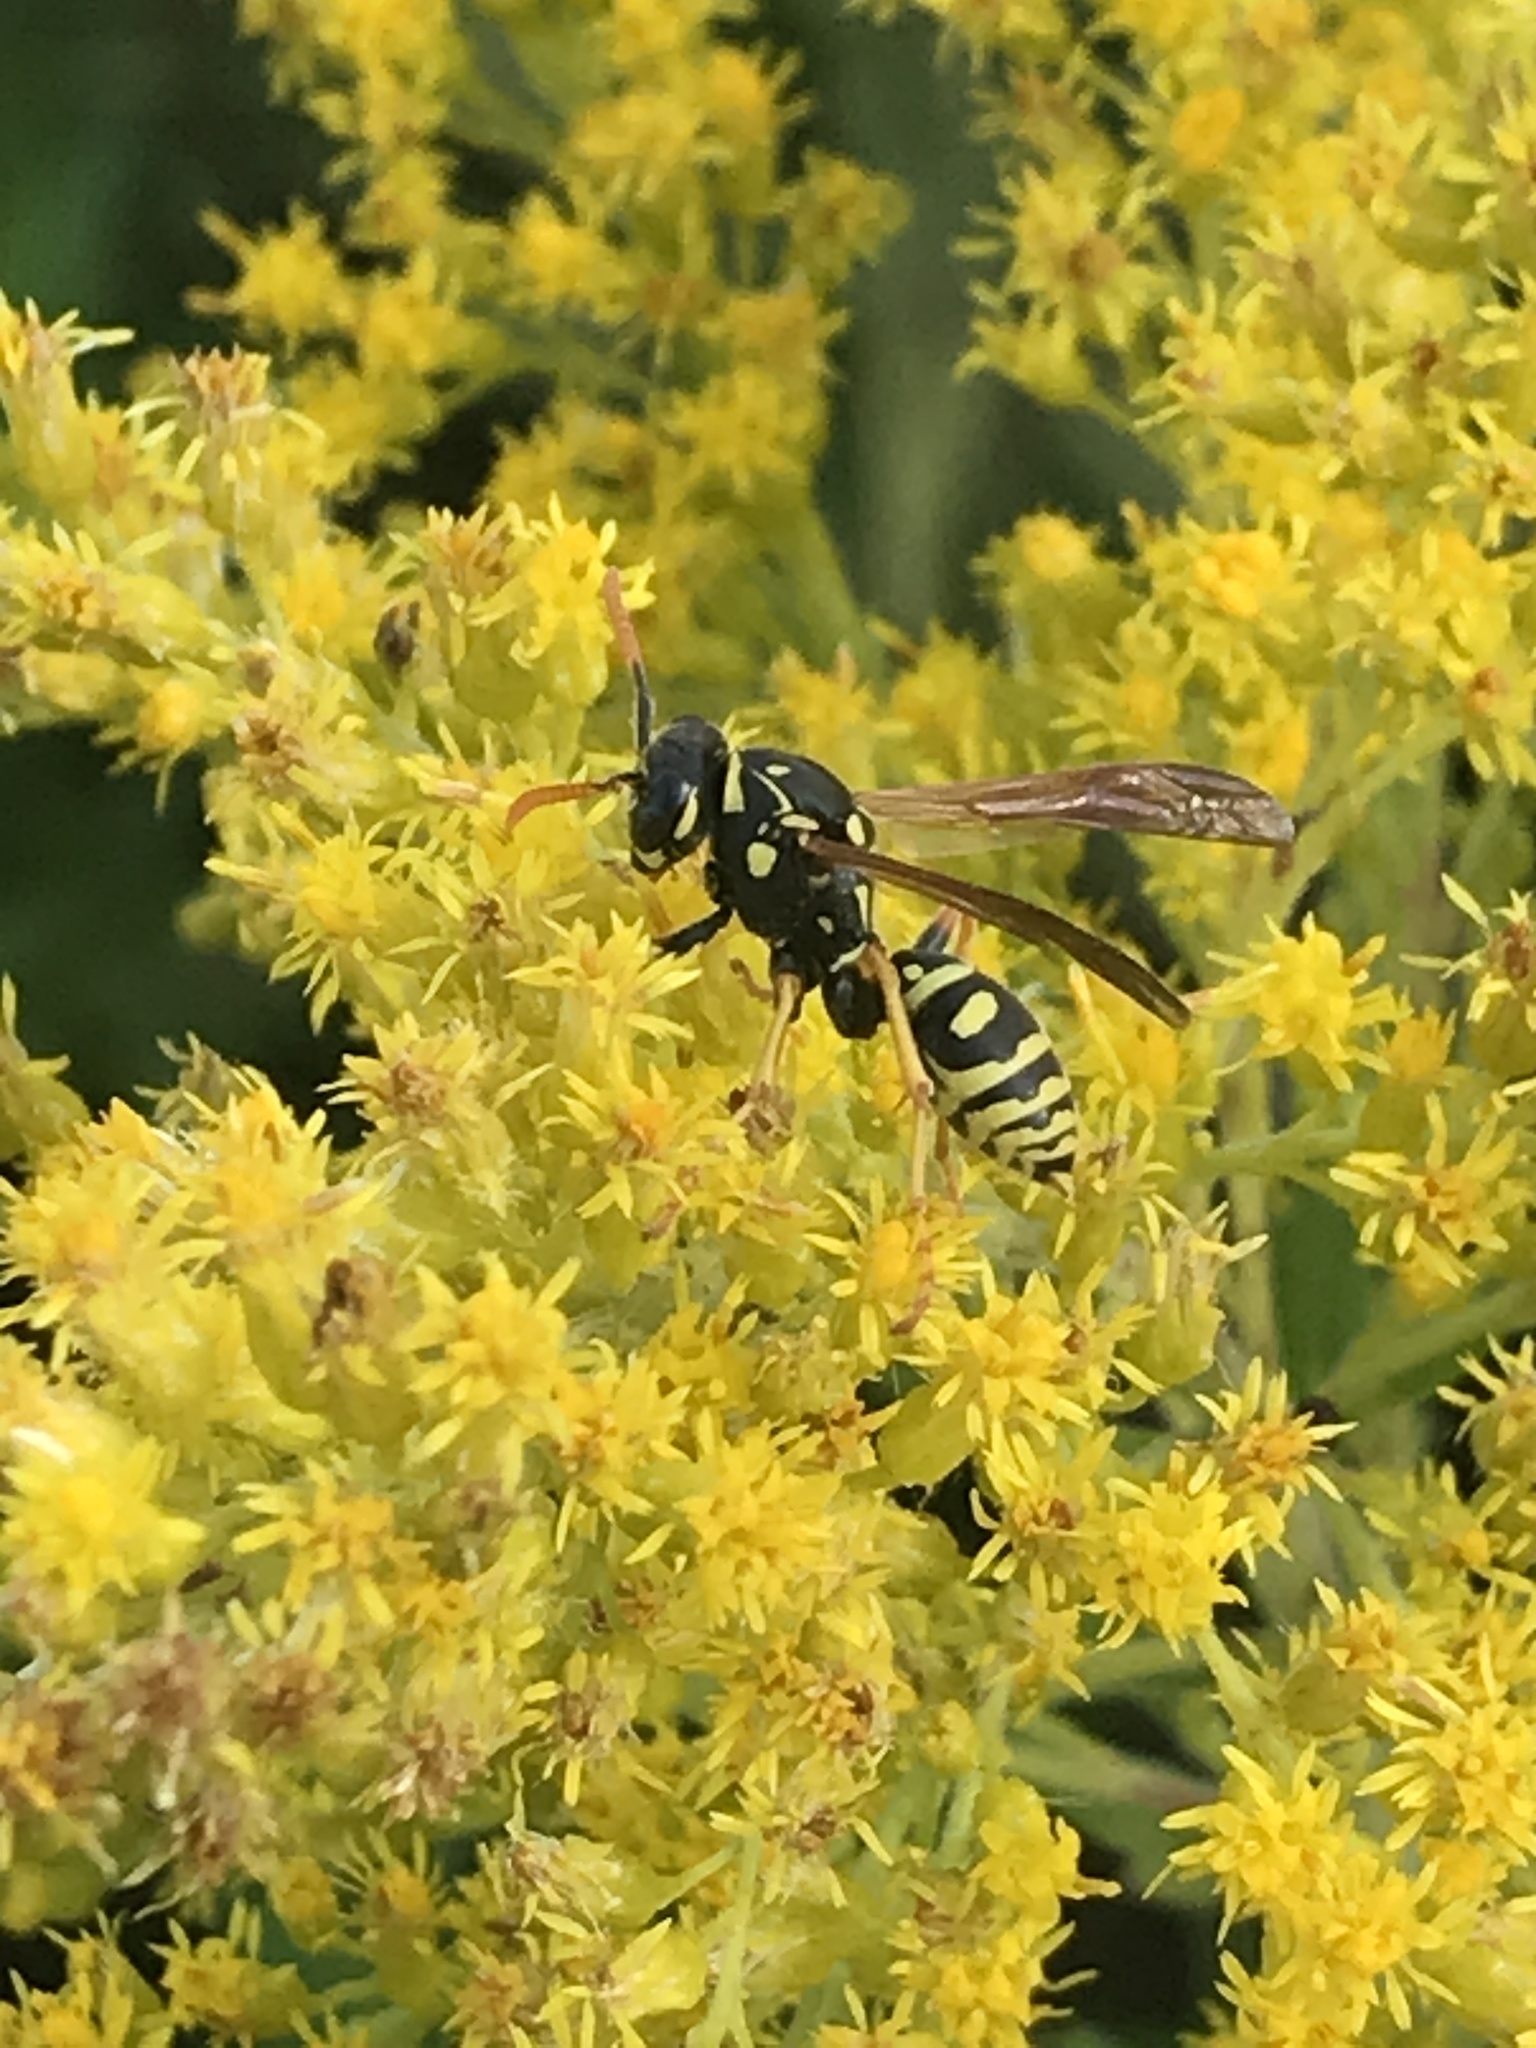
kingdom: Animalia
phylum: Arthropoda
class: Insecta
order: Hymenoptera
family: Eumenidae
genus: Polistes
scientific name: Polistes dominula
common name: Paper wasp
